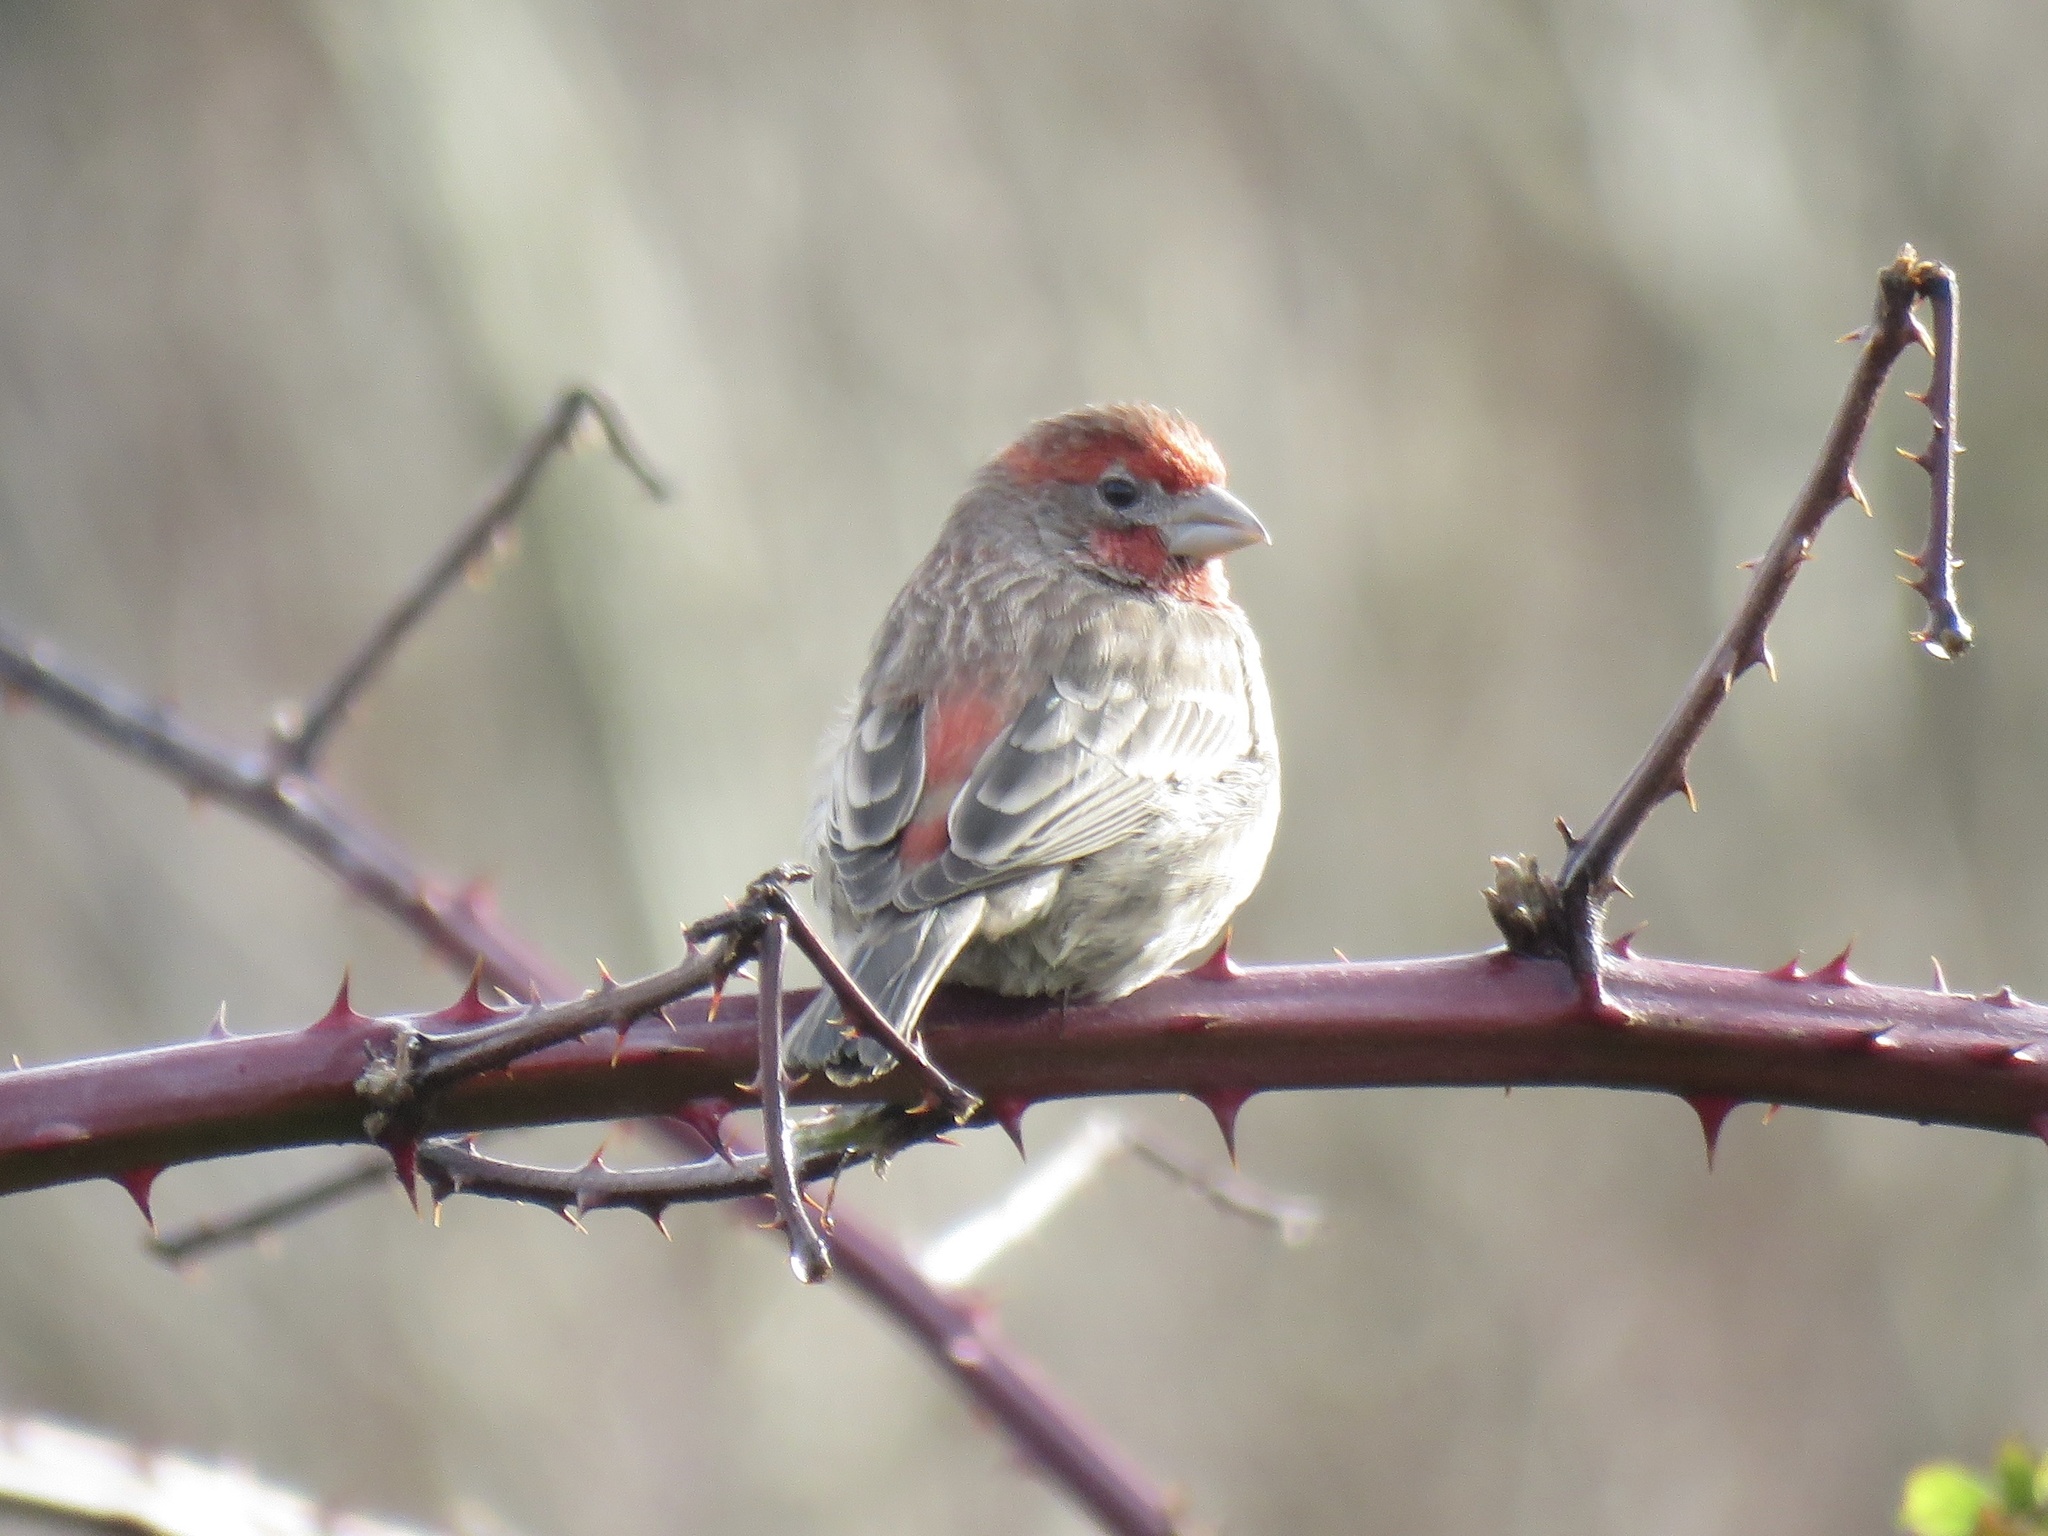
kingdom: Animalia
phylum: Chordata
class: Aves
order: Passeriformes
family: Fringillidae
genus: Haemorhous
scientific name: Haemorhous mexicanus
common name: House finch
